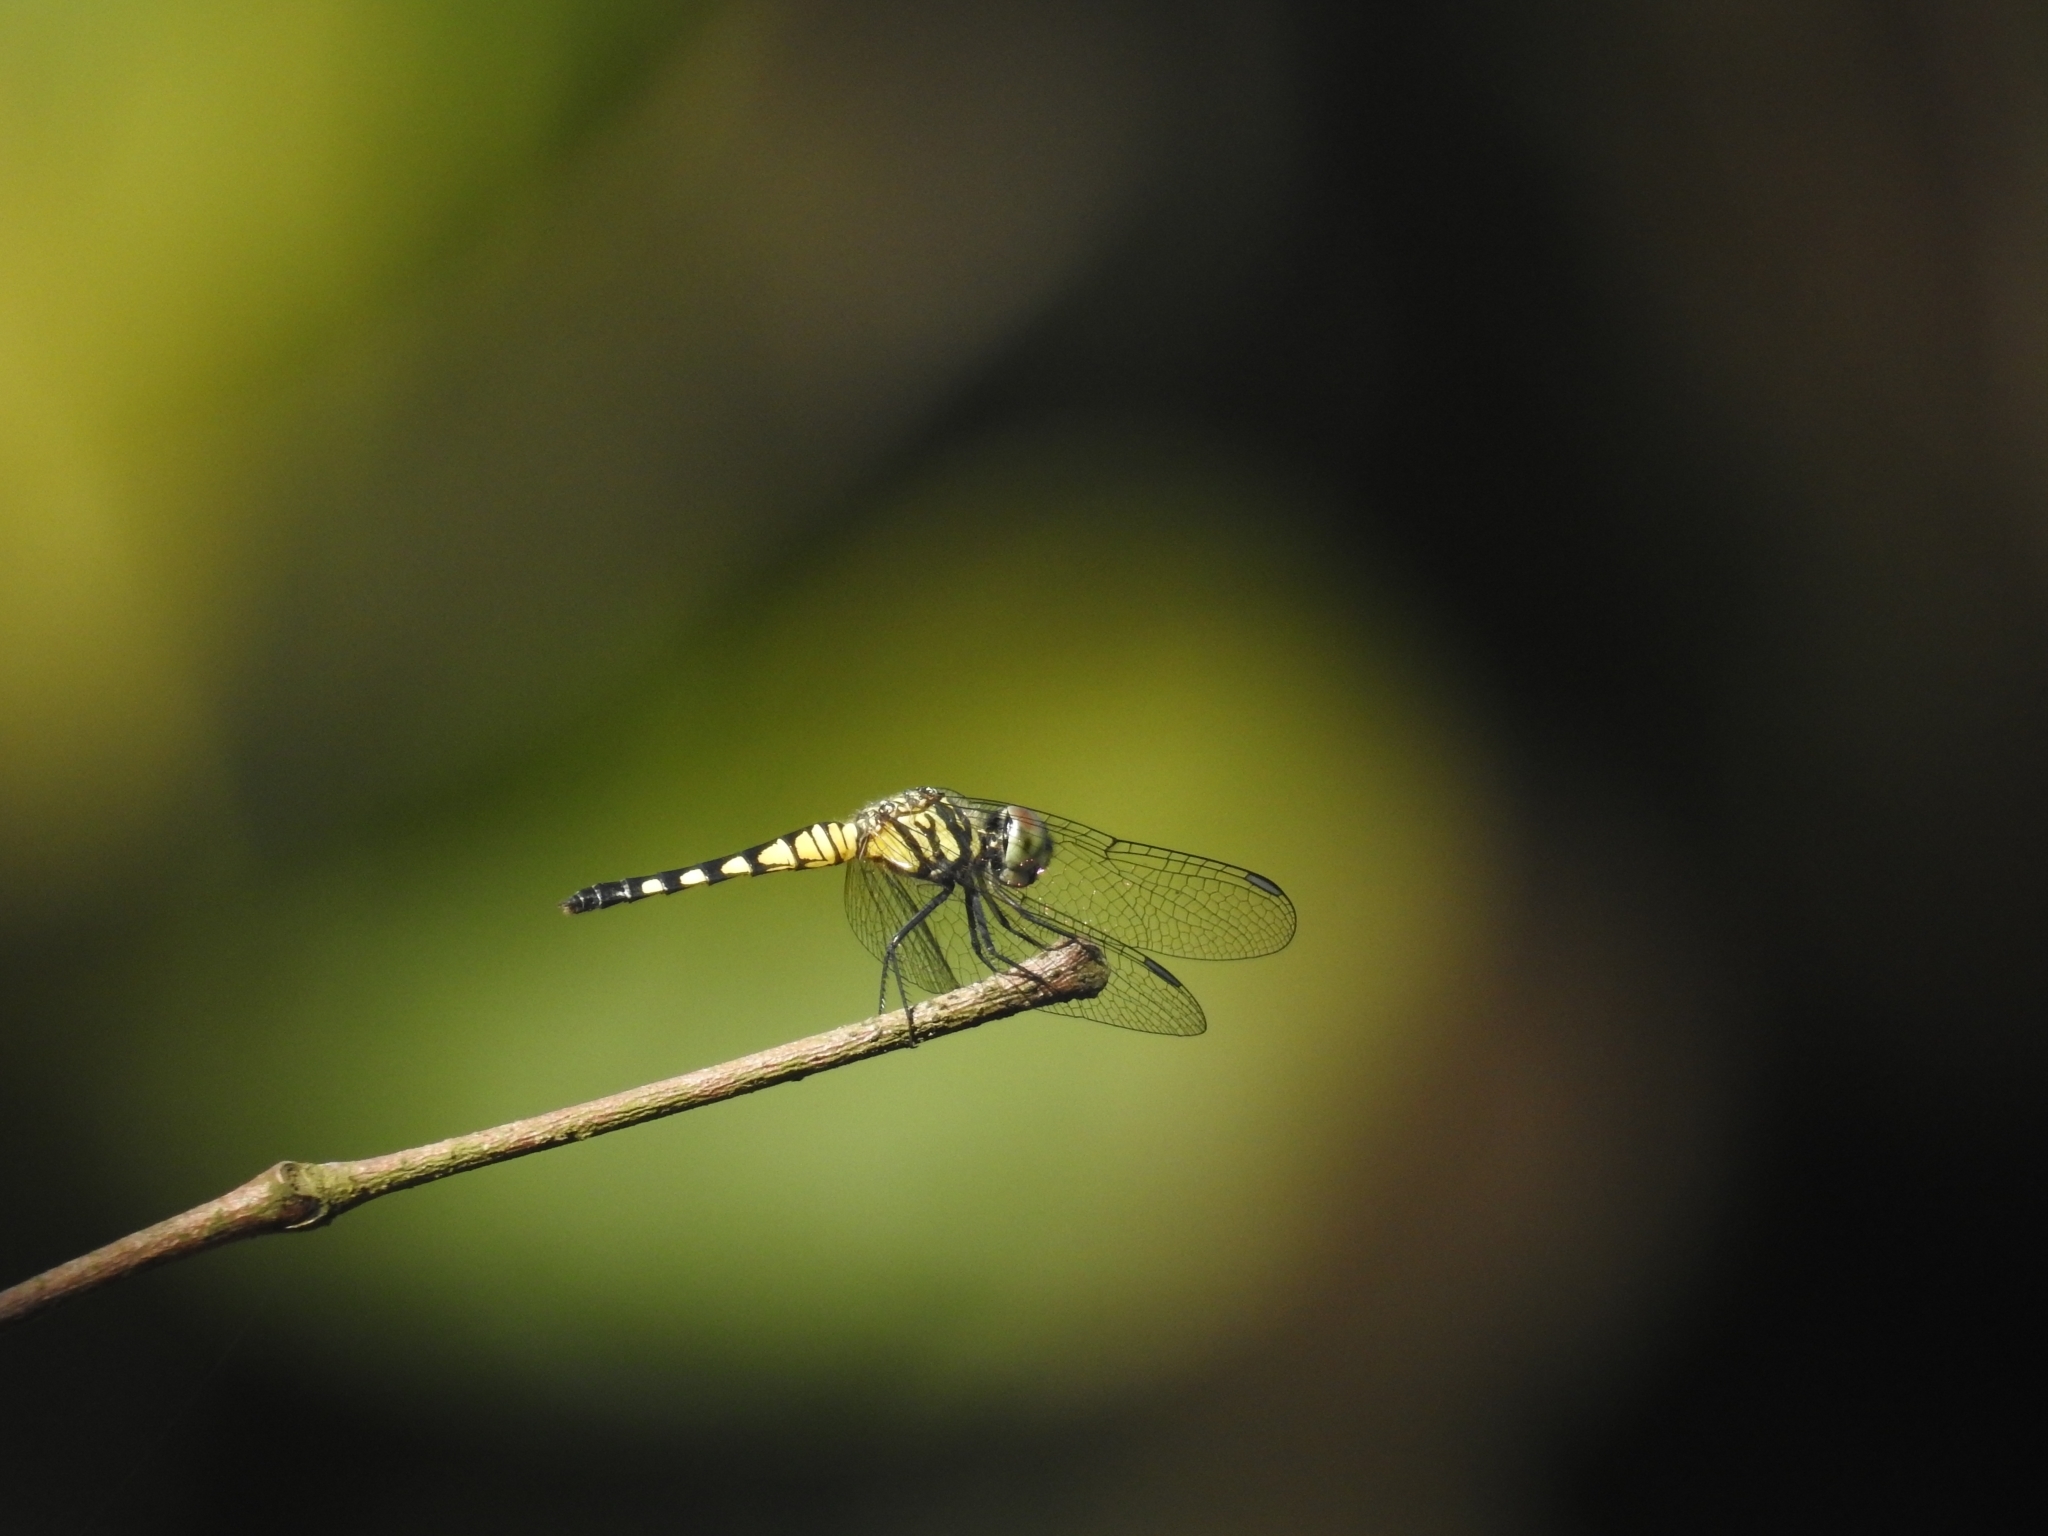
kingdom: Animalia
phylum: Arthropoda
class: Insecta
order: Odonata
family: Libellulidae
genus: Brachydiplax
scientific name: Brachydiplax sobrina
